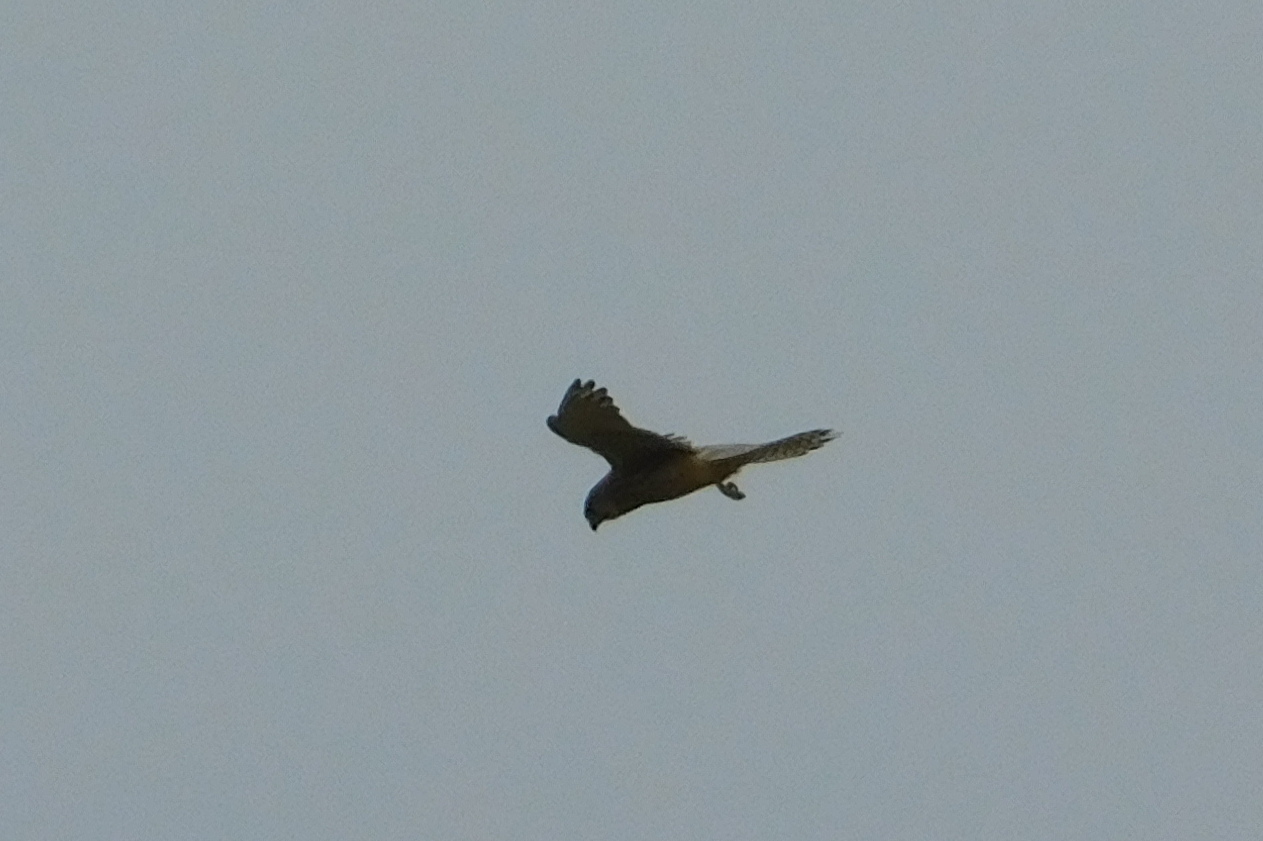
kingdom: Animalia
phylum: Chordata
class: Aves
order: Falconiformes
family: Falconidae
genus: Falco
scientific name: Falco tinnunculus
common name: Common kestrel
